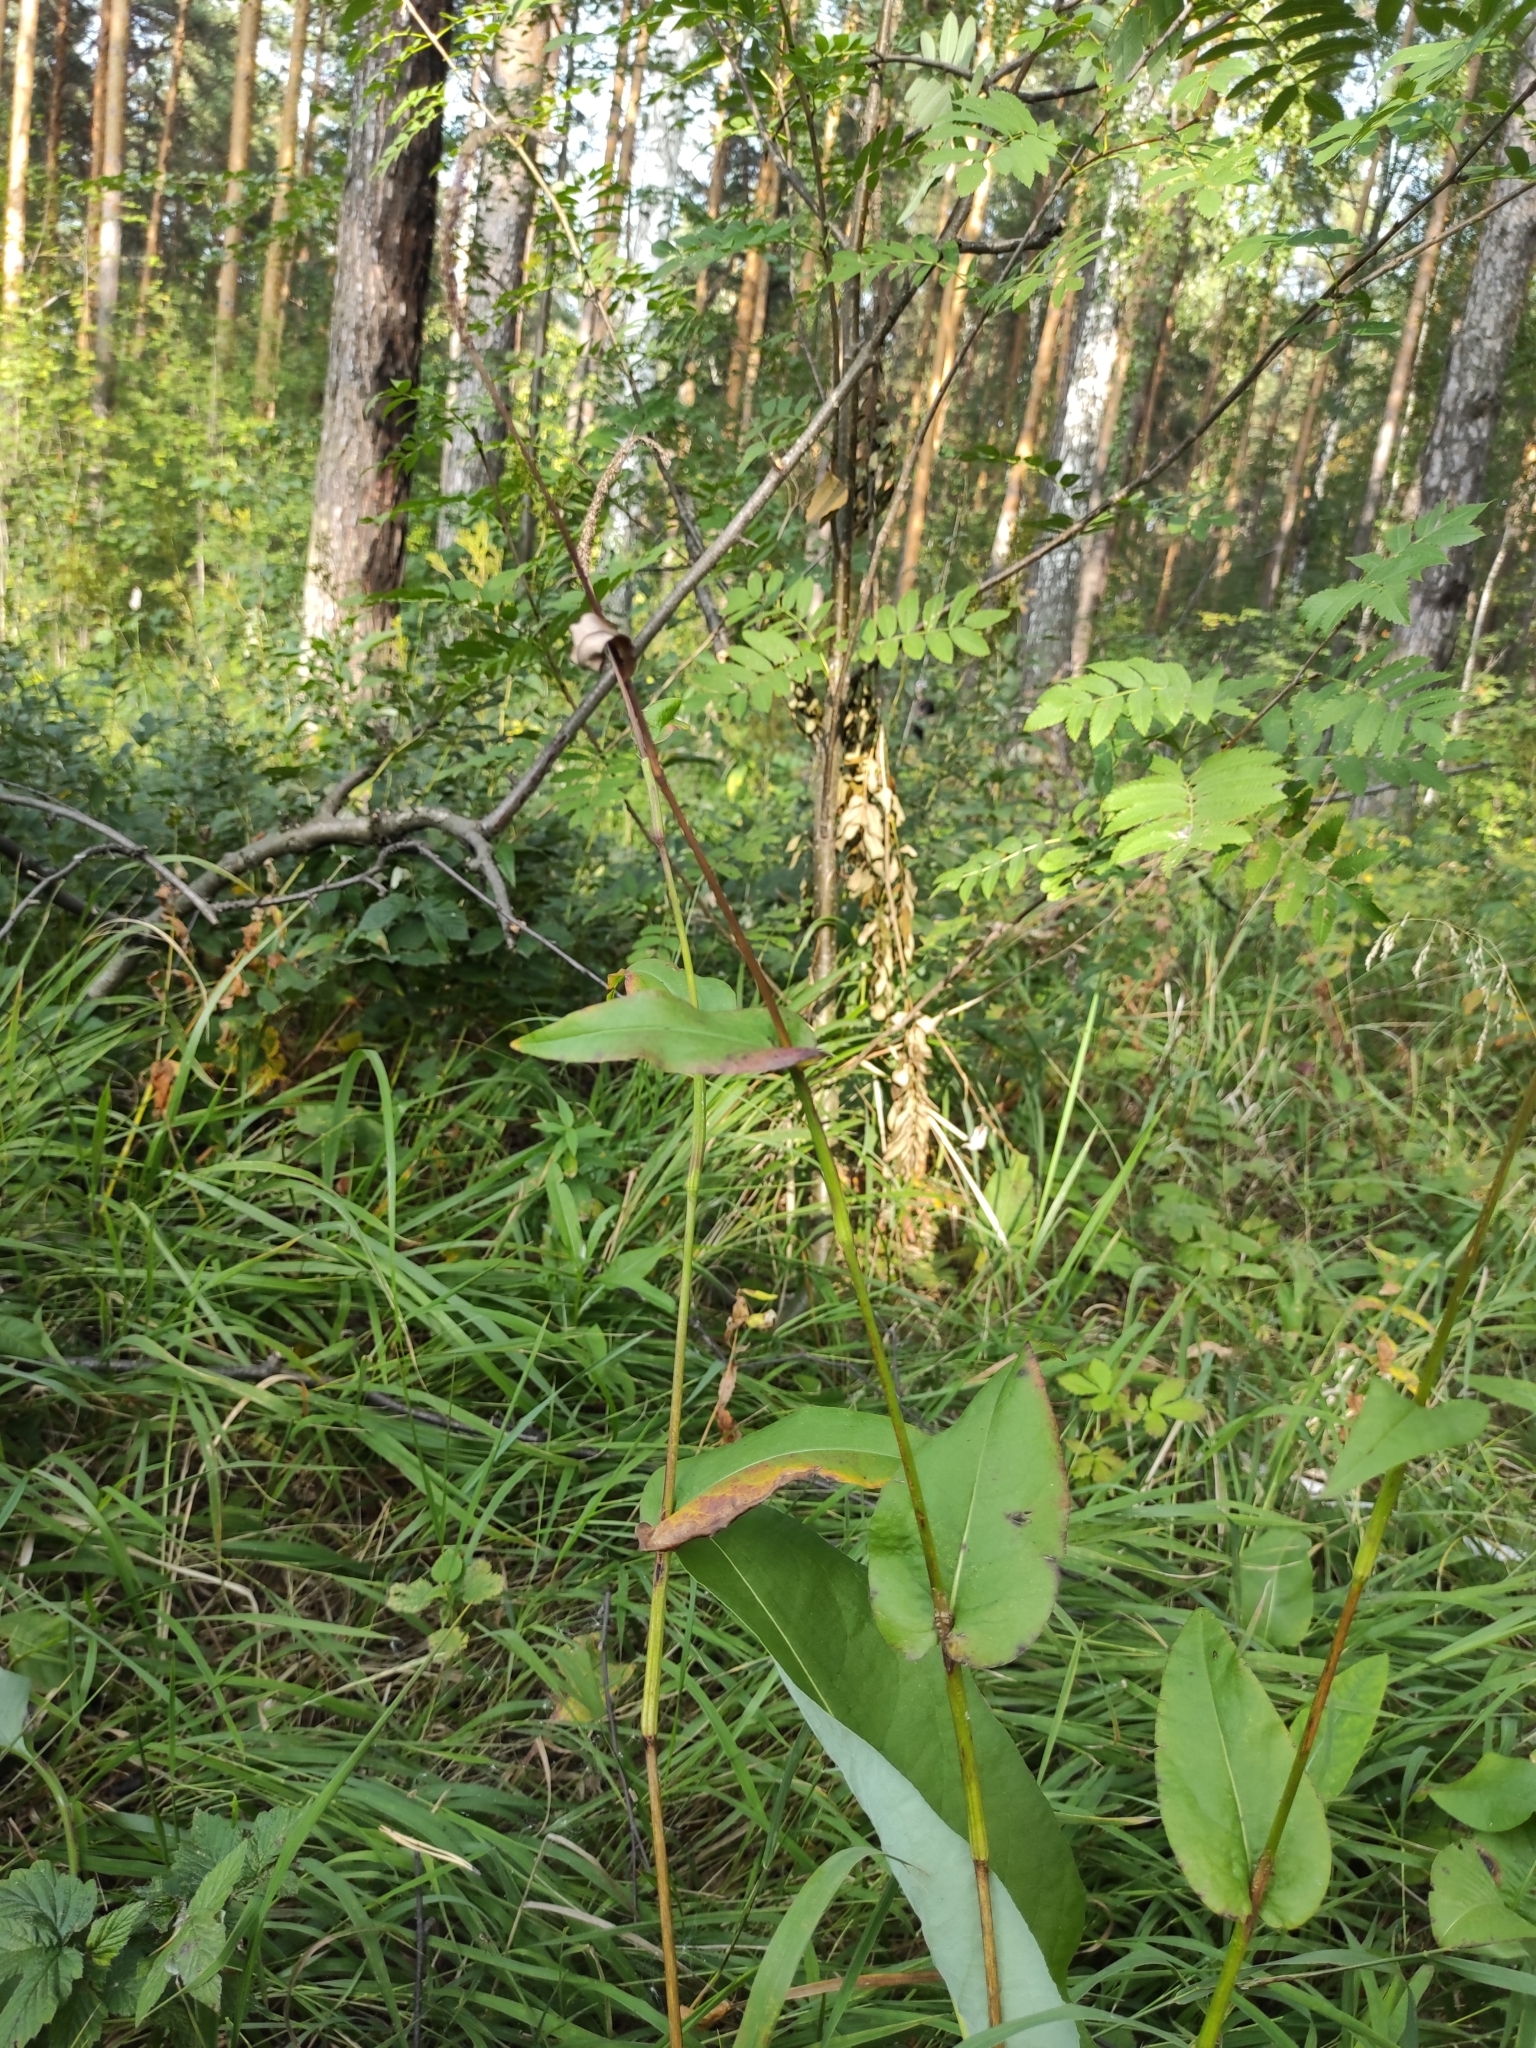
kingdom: Plantae
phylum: Tracheophyta
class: Magnoliopsida
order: Caryophyllales
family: Polygonaceae
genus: Bistorta
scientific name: Bistorta officinalis
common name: Common bistort
